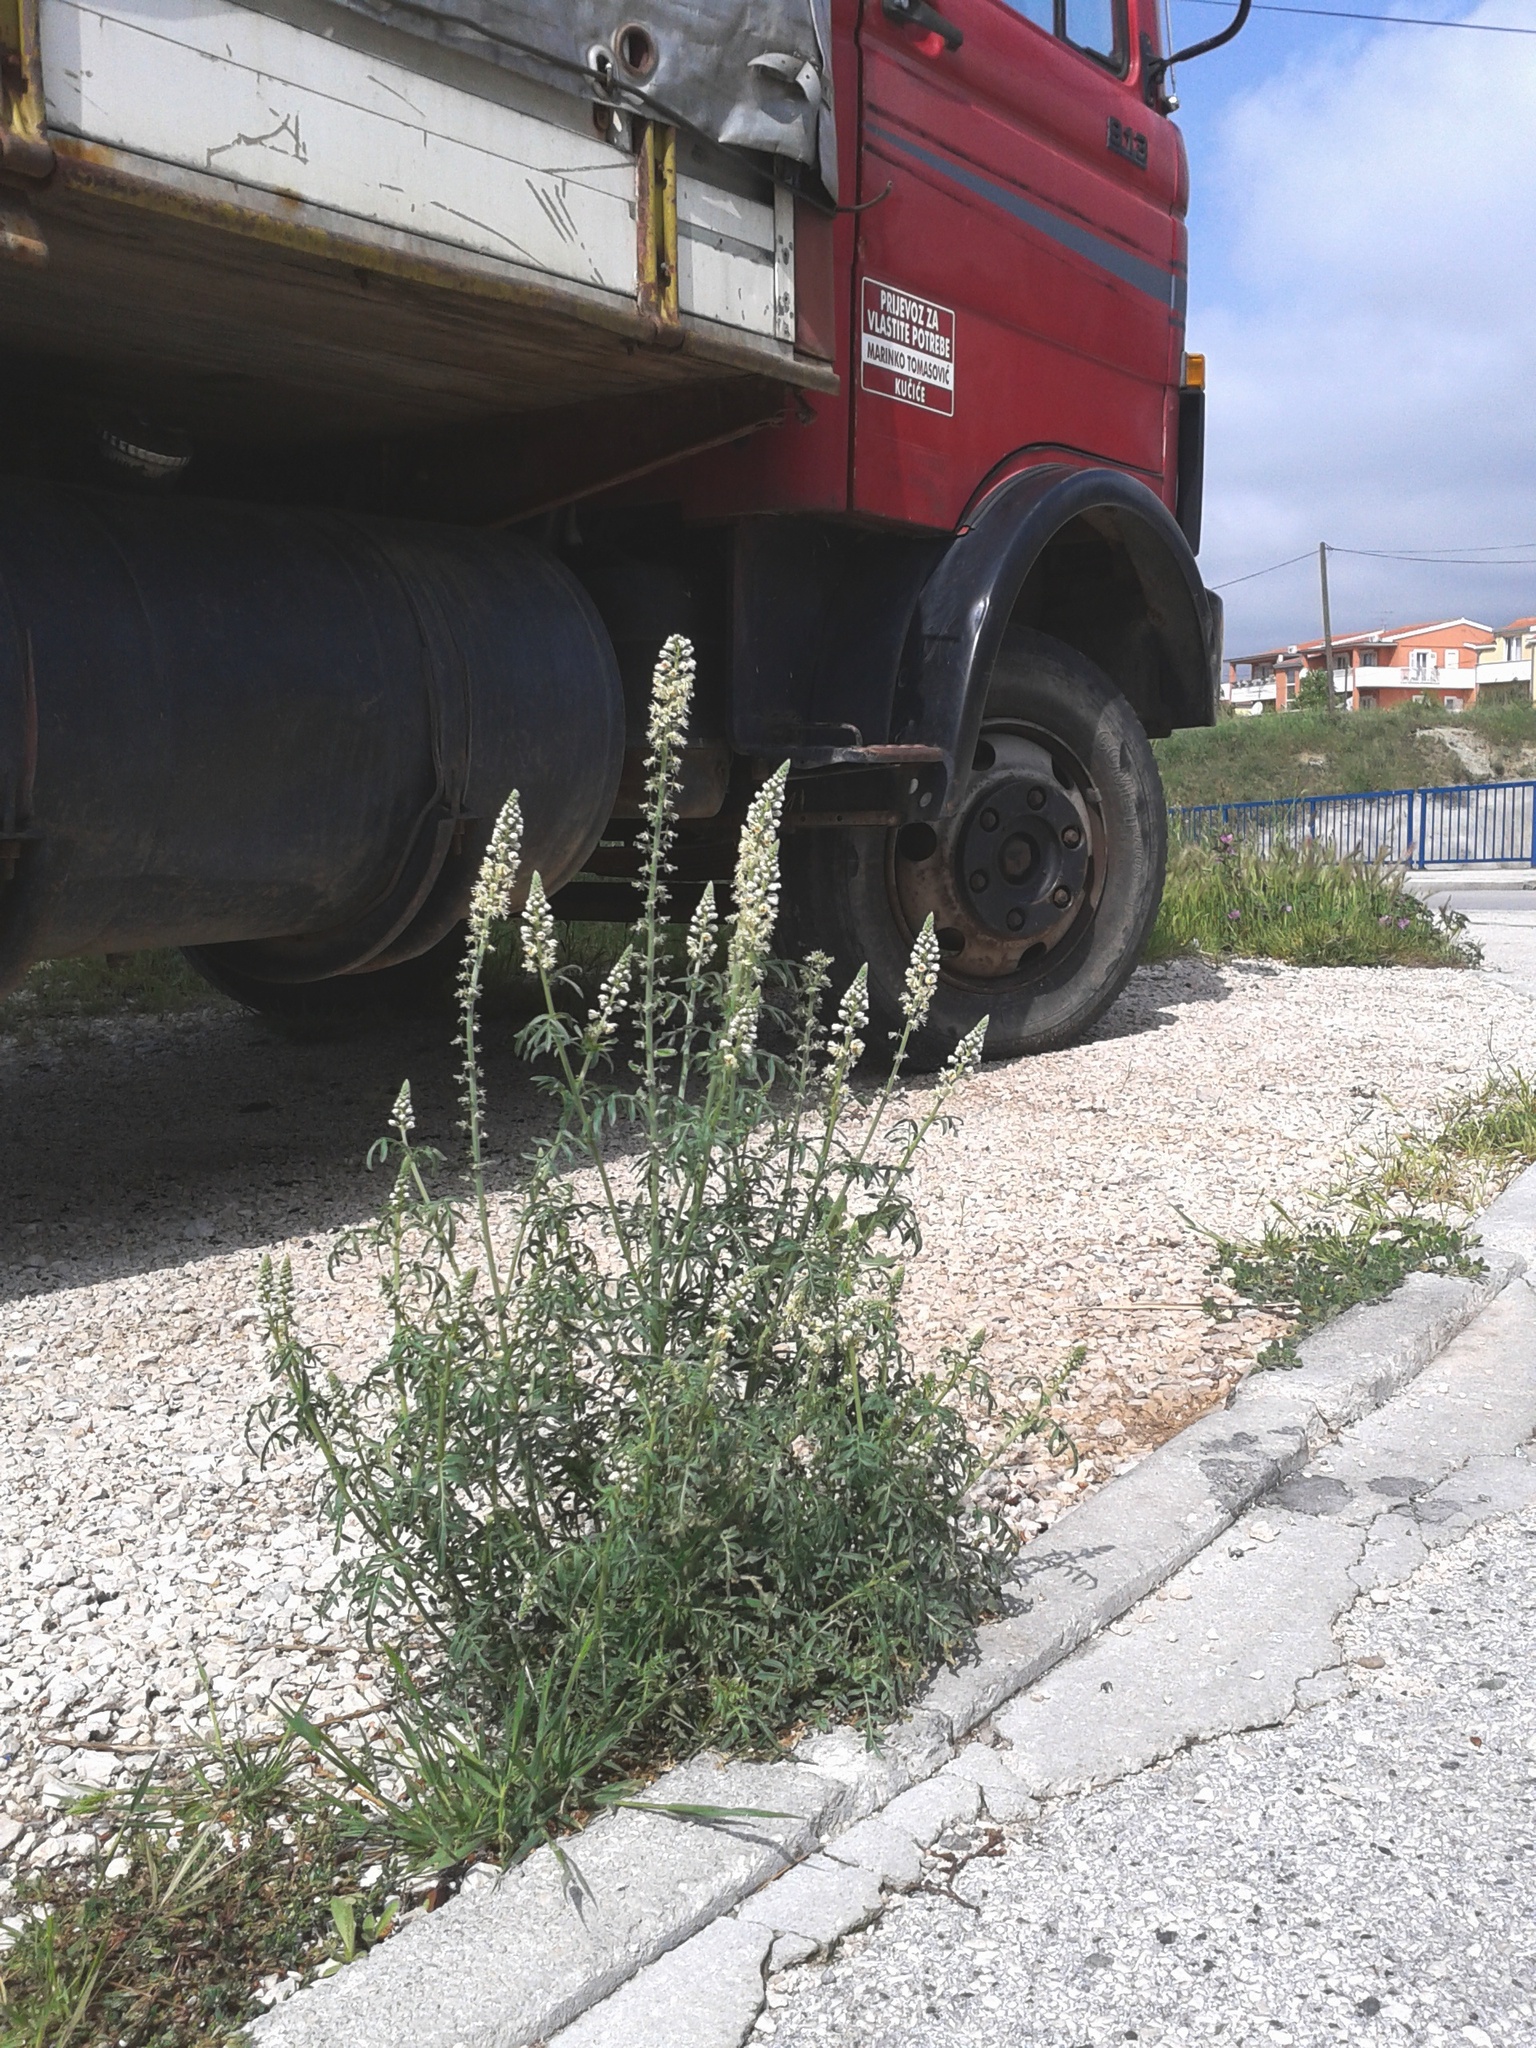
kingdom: Plantae
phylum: Tracheophyta
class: Magnoliopsida
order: Brassicales
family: Resedaceae
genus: Reseda
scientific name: Reseda alba
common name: White mignonette
